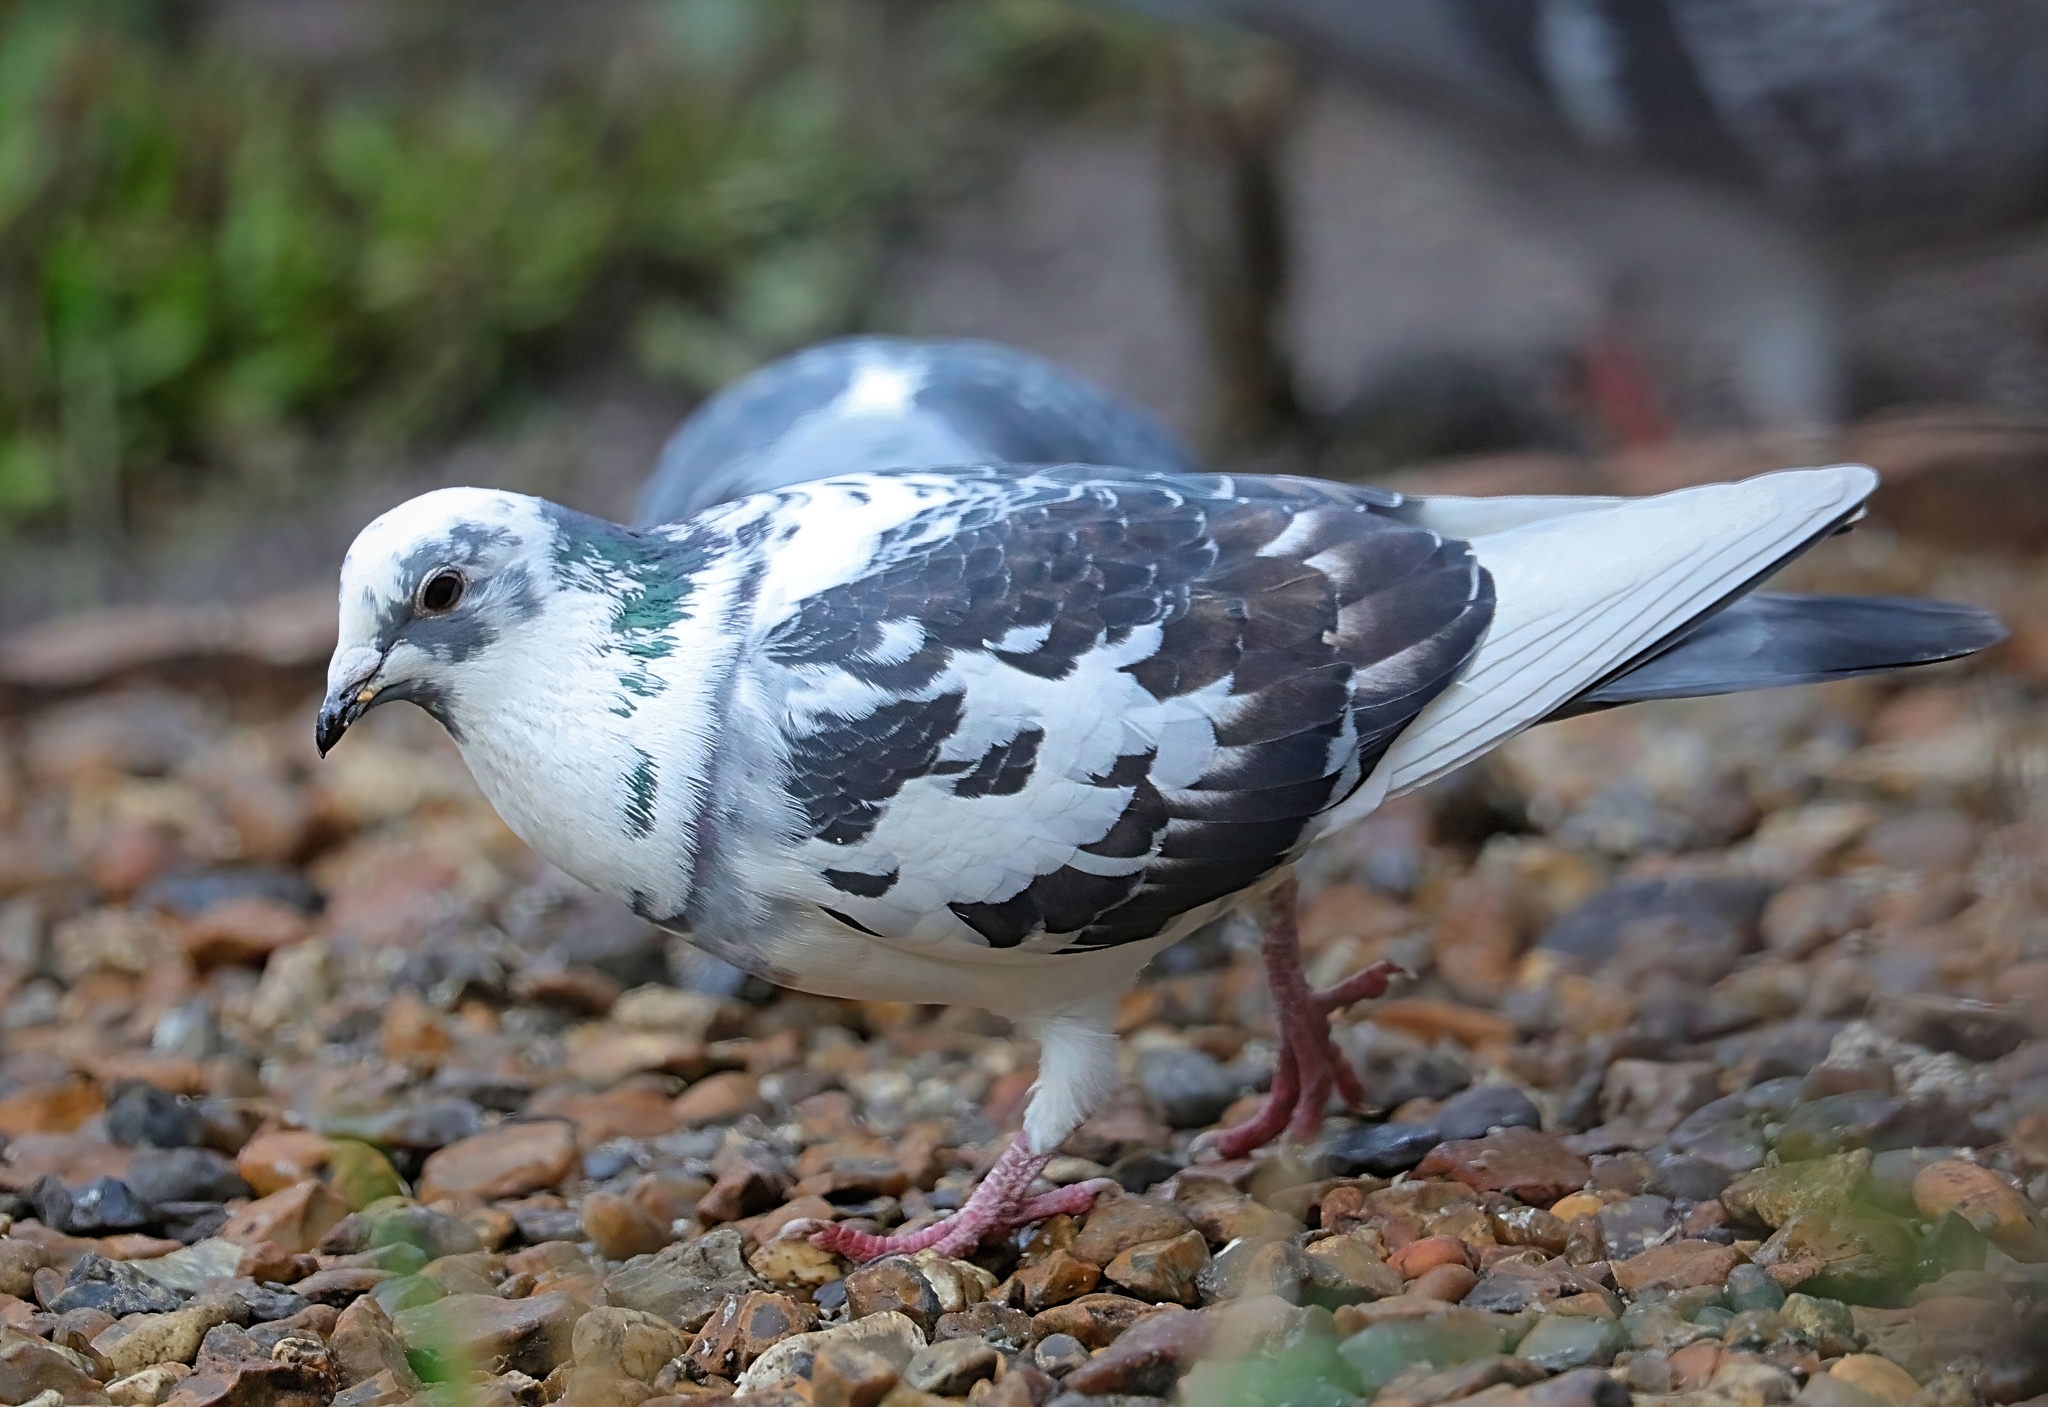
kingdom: Animalia
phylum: Chordata
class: Aves
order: Columbiformes
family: Columbidae
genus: Columba
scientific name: Columba livia
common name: Rock pigeon
